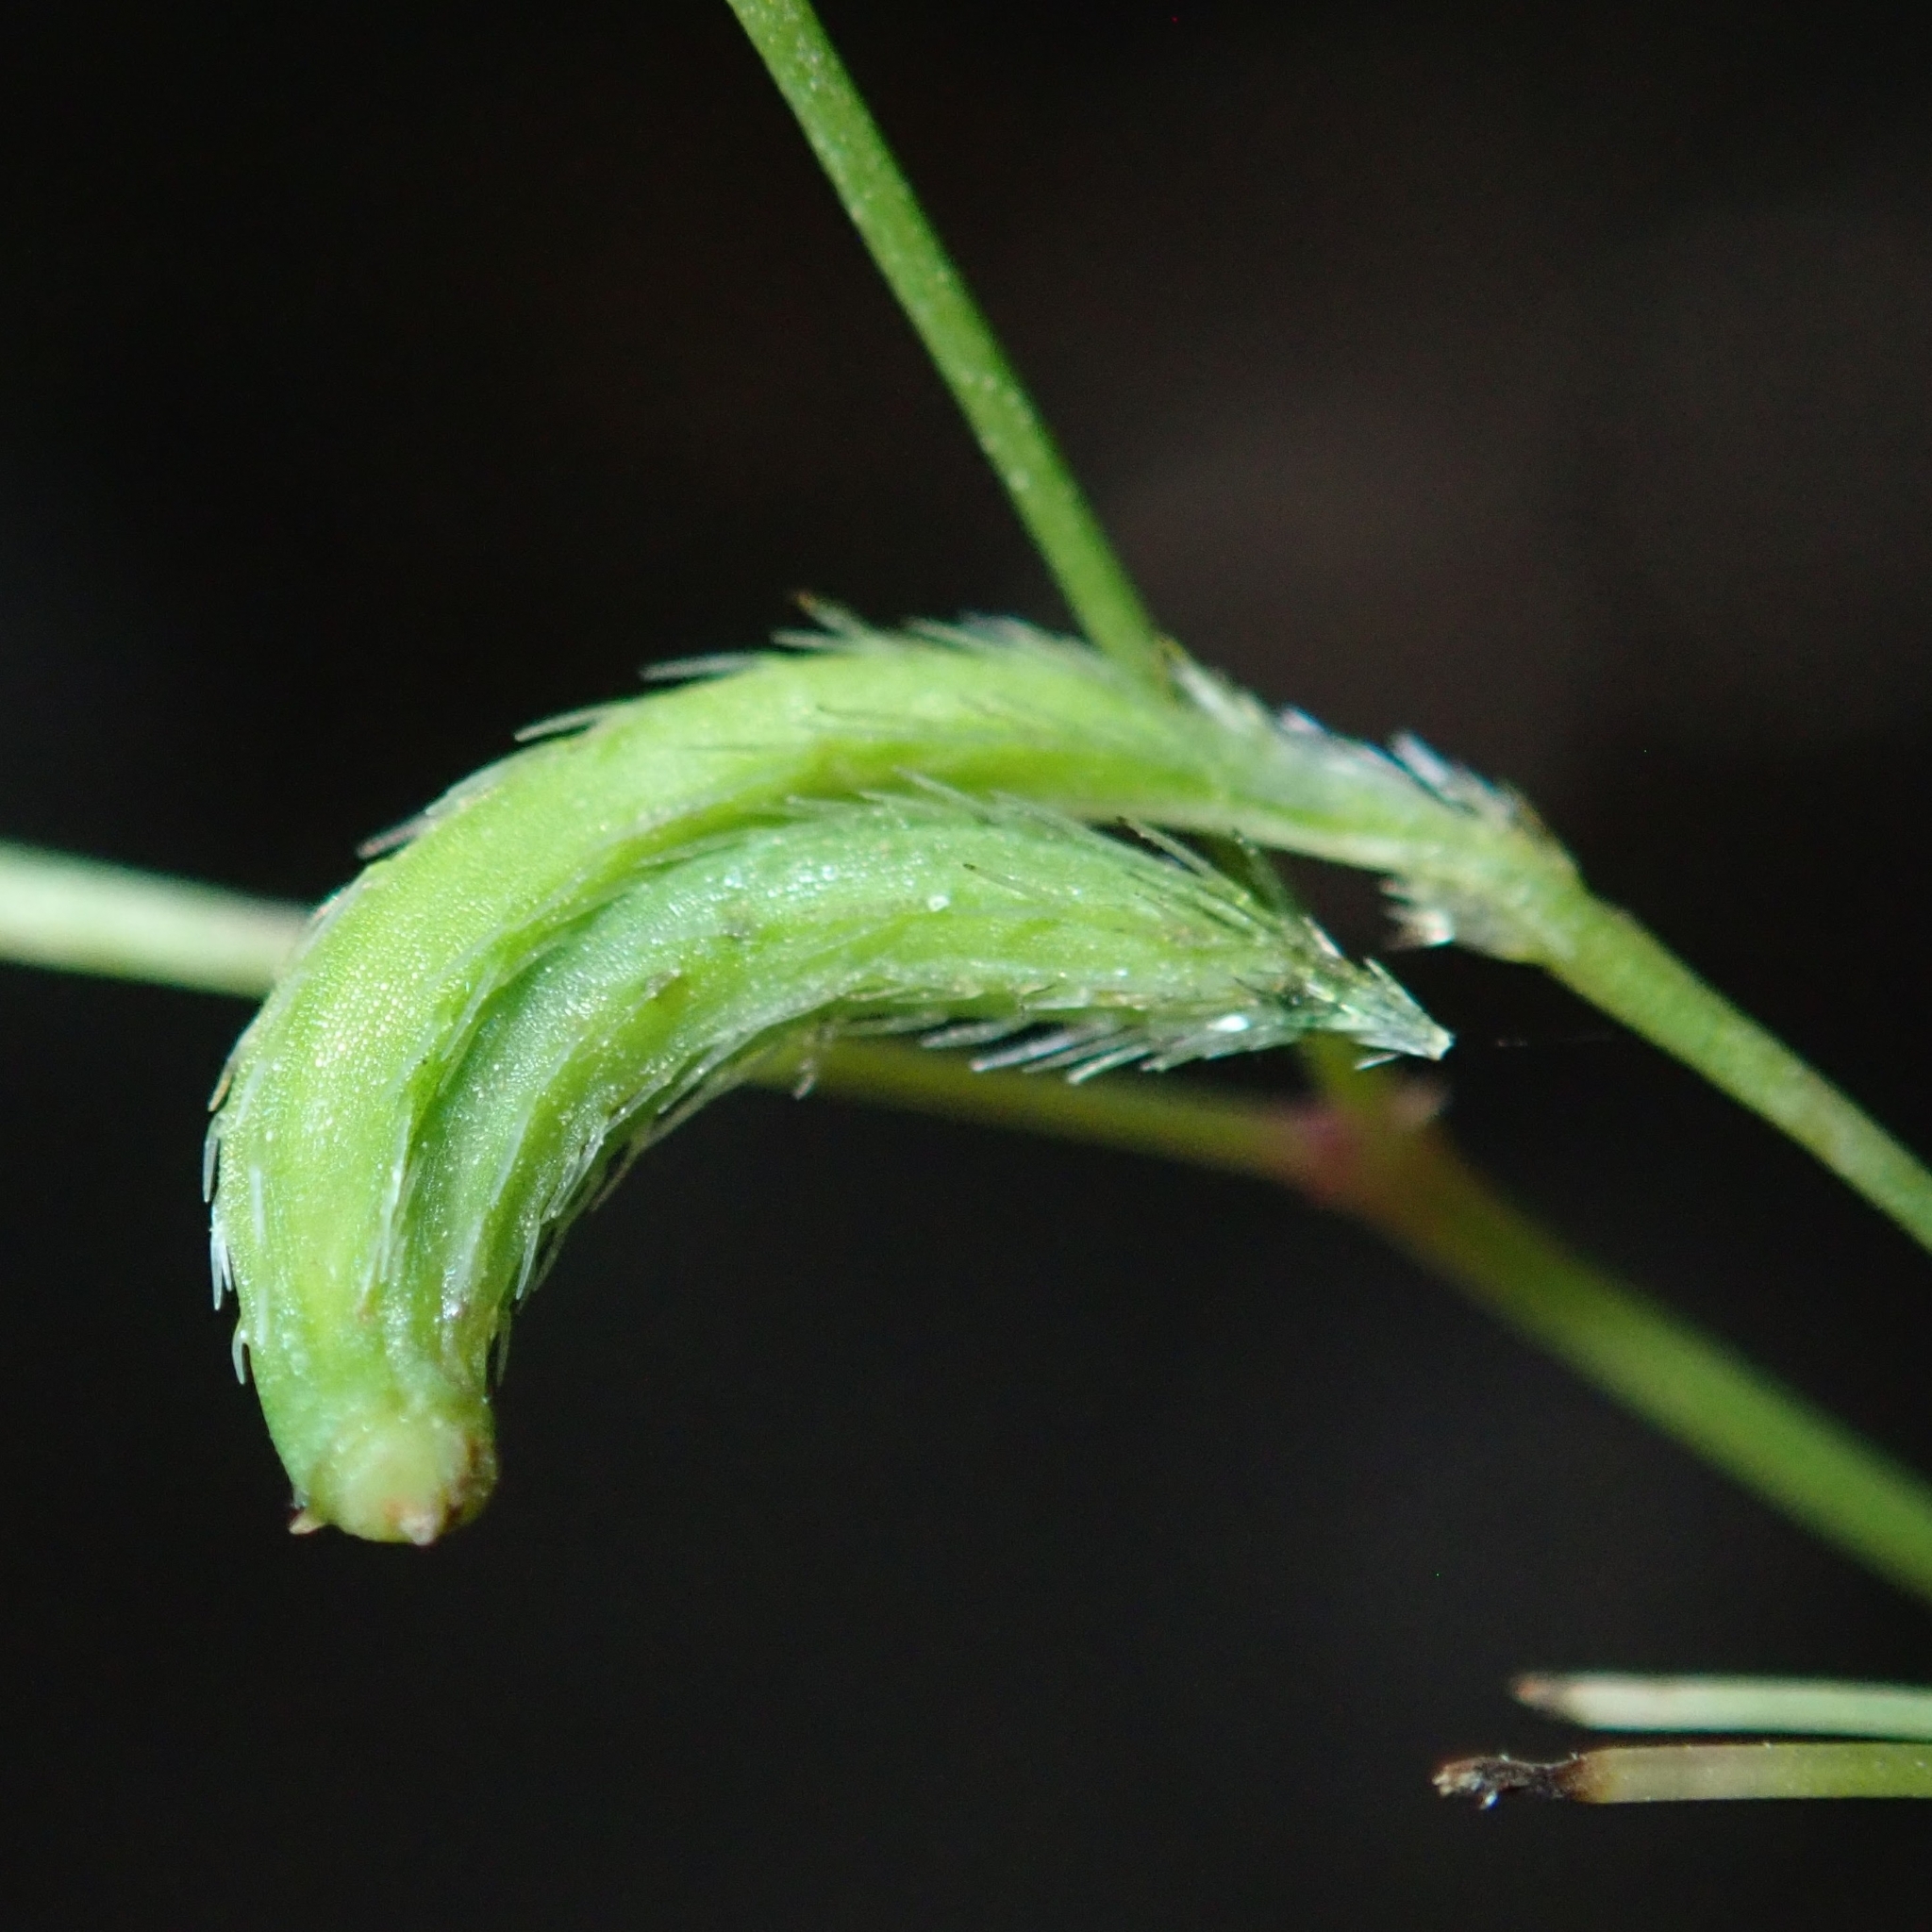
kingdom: Plantae
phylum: Tracheophyta
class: Magnoliopsida
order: Apiales
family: Apiaceae
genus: Osmorhiza
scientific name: Osmorhiza berteroi
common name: Mountain sweet cicely
